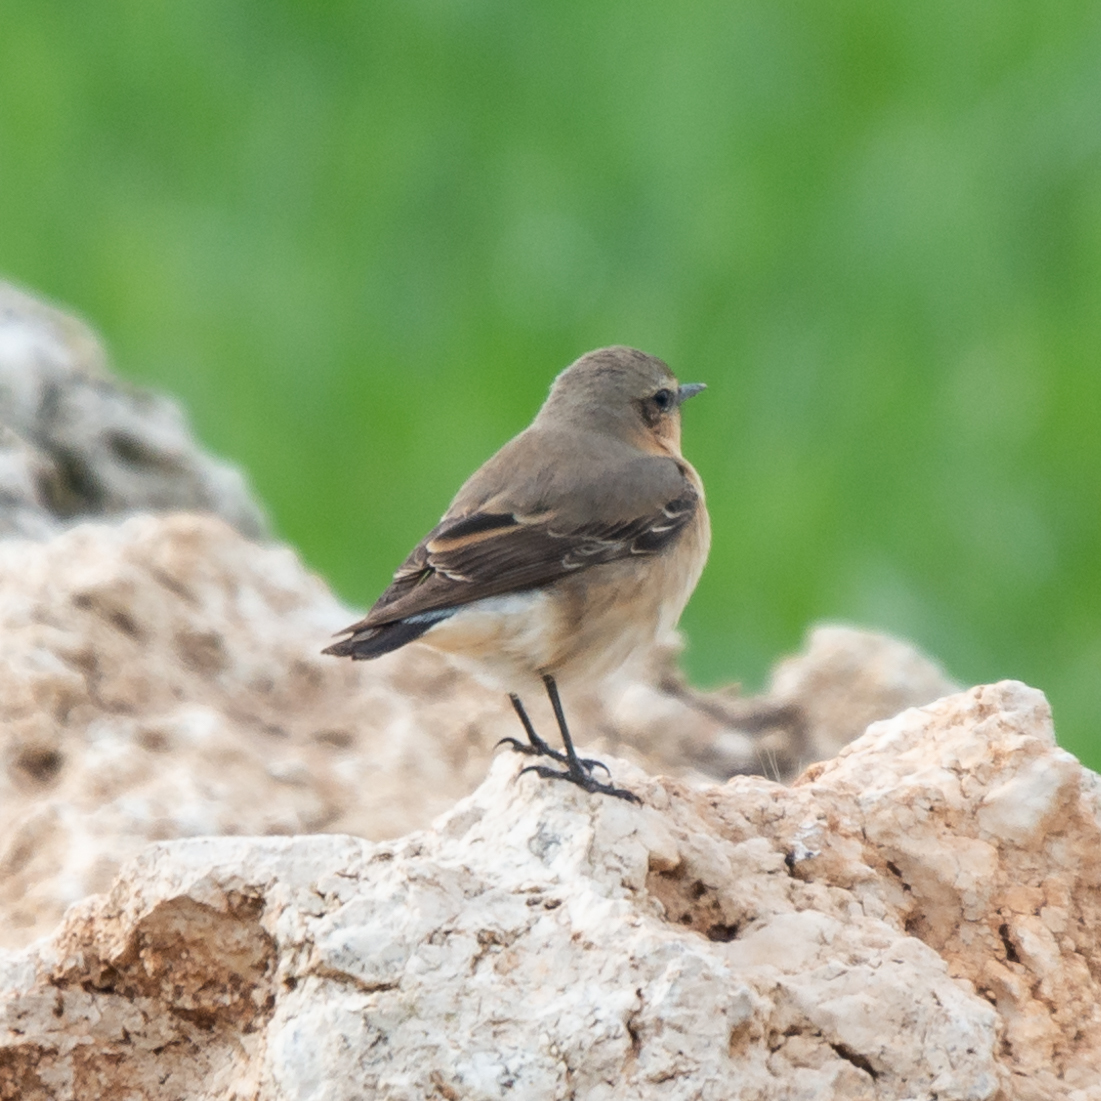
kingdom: Animalia
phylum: Chordata
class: Aves
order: Passeriformes
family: Muscicapidae
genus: Oenanthe
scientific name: Oenanthe oenanthe
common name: Northern wheatear
